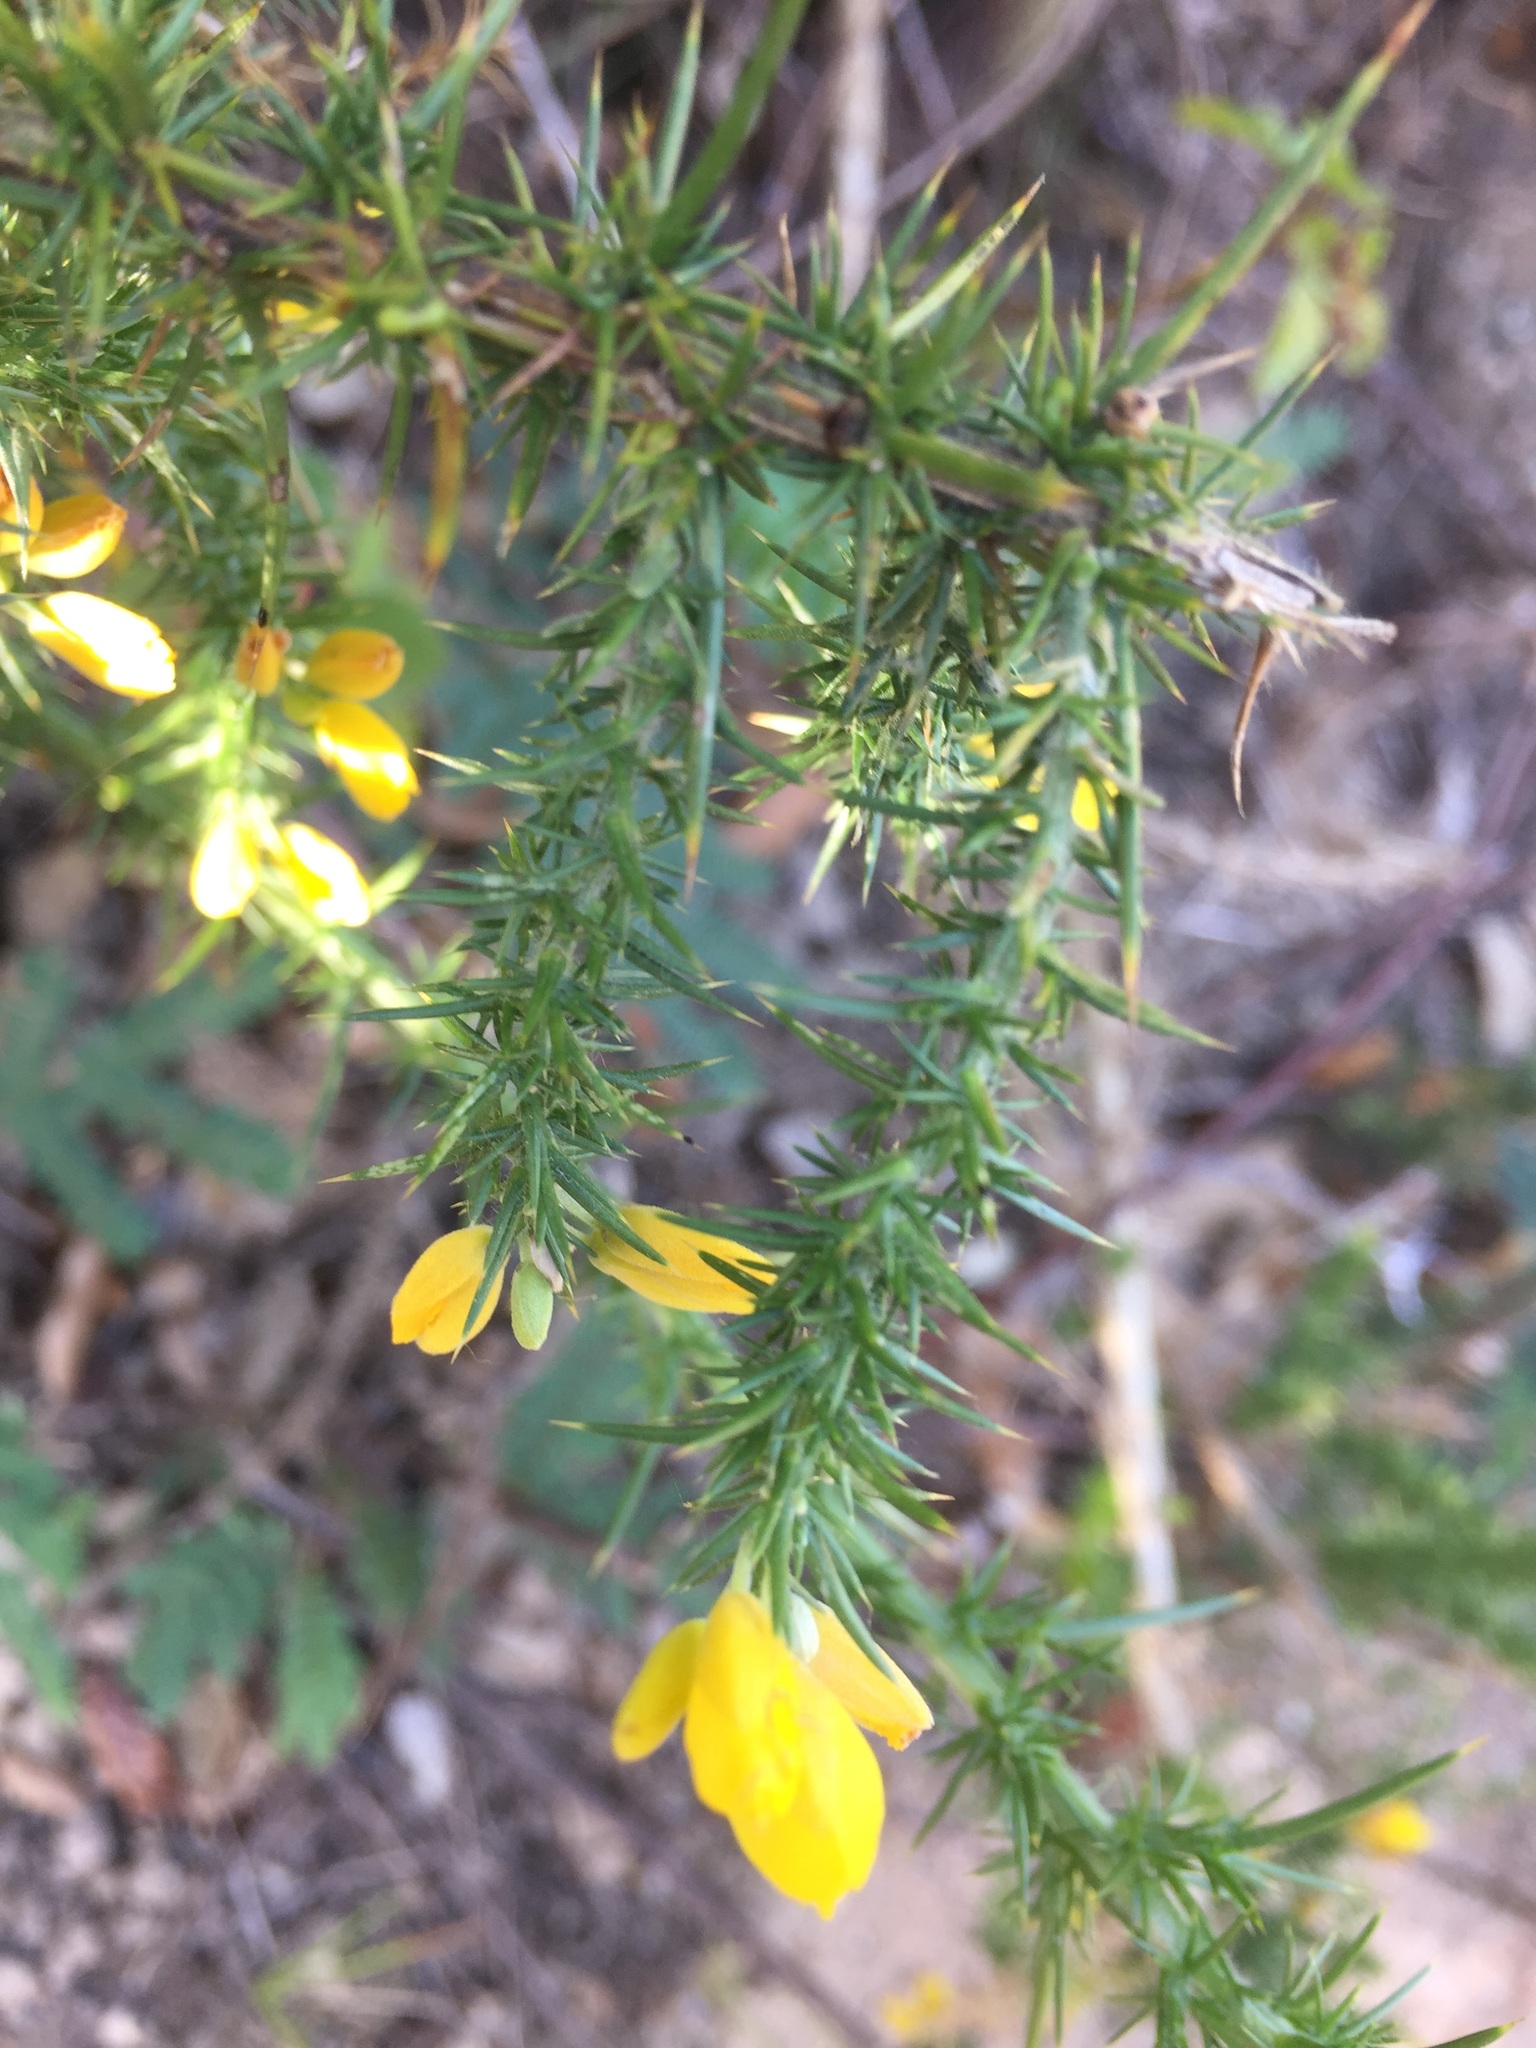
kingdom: Plantae
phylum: Tracheophyta
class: Magnoliopsida
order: Fabales
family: Fabaceae
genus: Ulex
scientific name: Ulex minor
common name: Dwarf gorse
